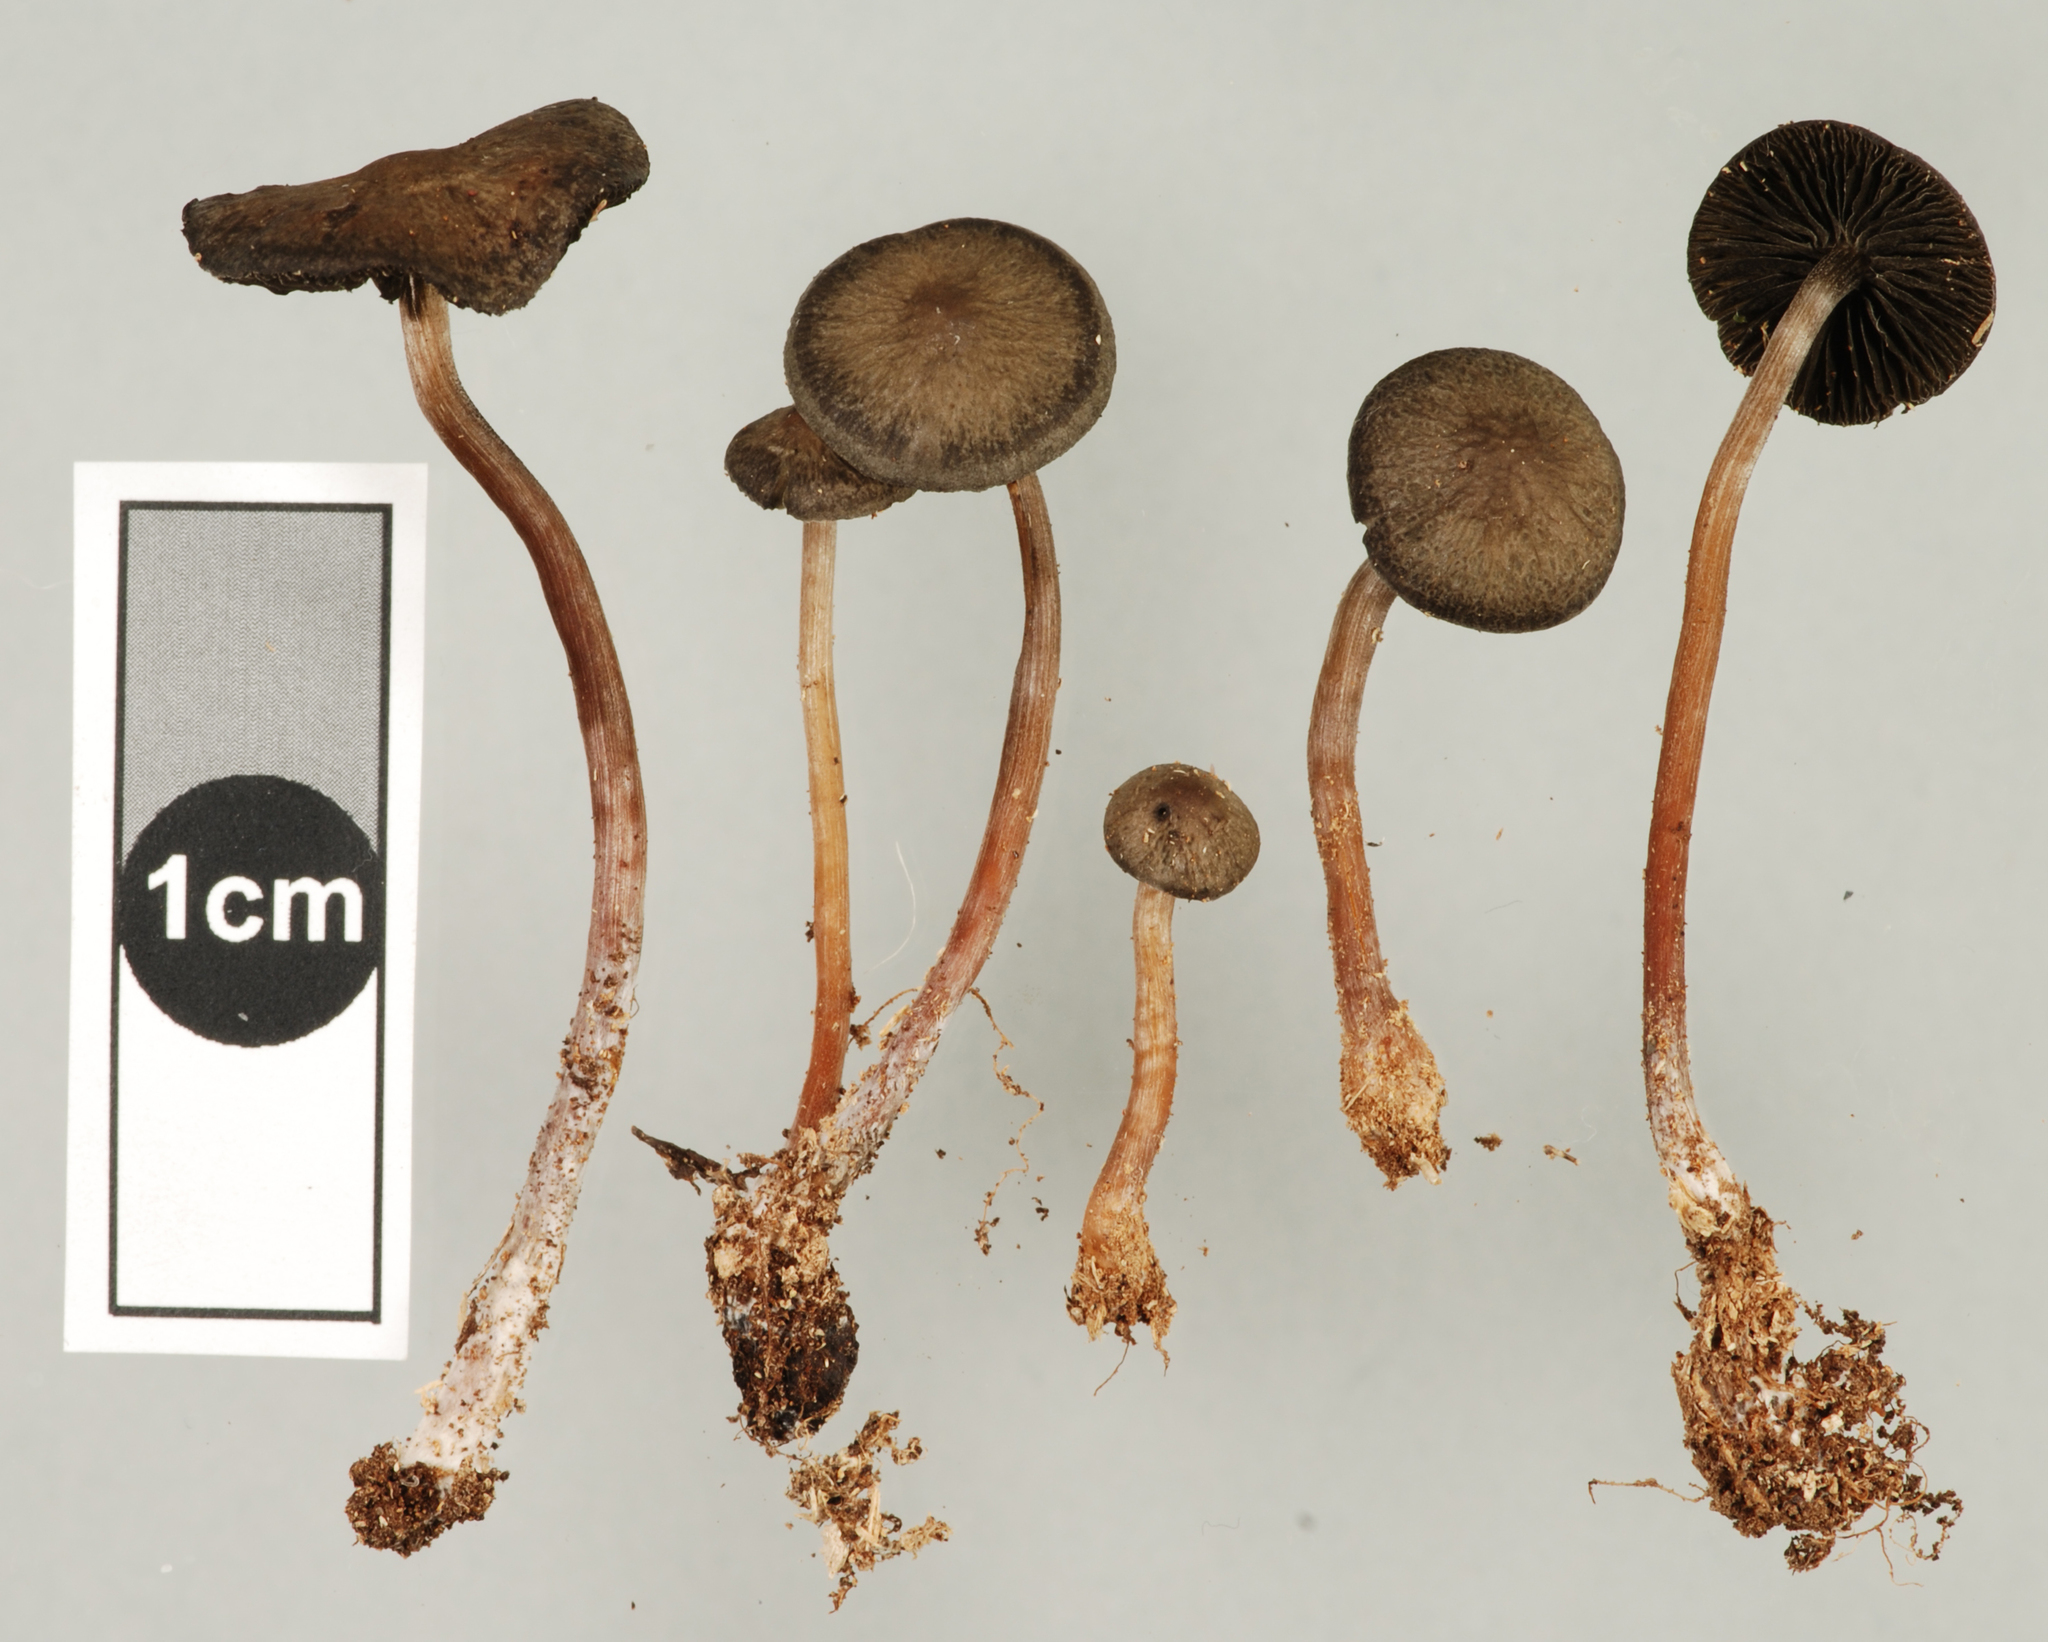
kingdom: Fungi
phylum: Basidiomycota
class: Agaricomycetes
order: Agaricales
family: Psathyrellaceae
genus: Psathyrella
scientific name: Psathyrella fimbriata
